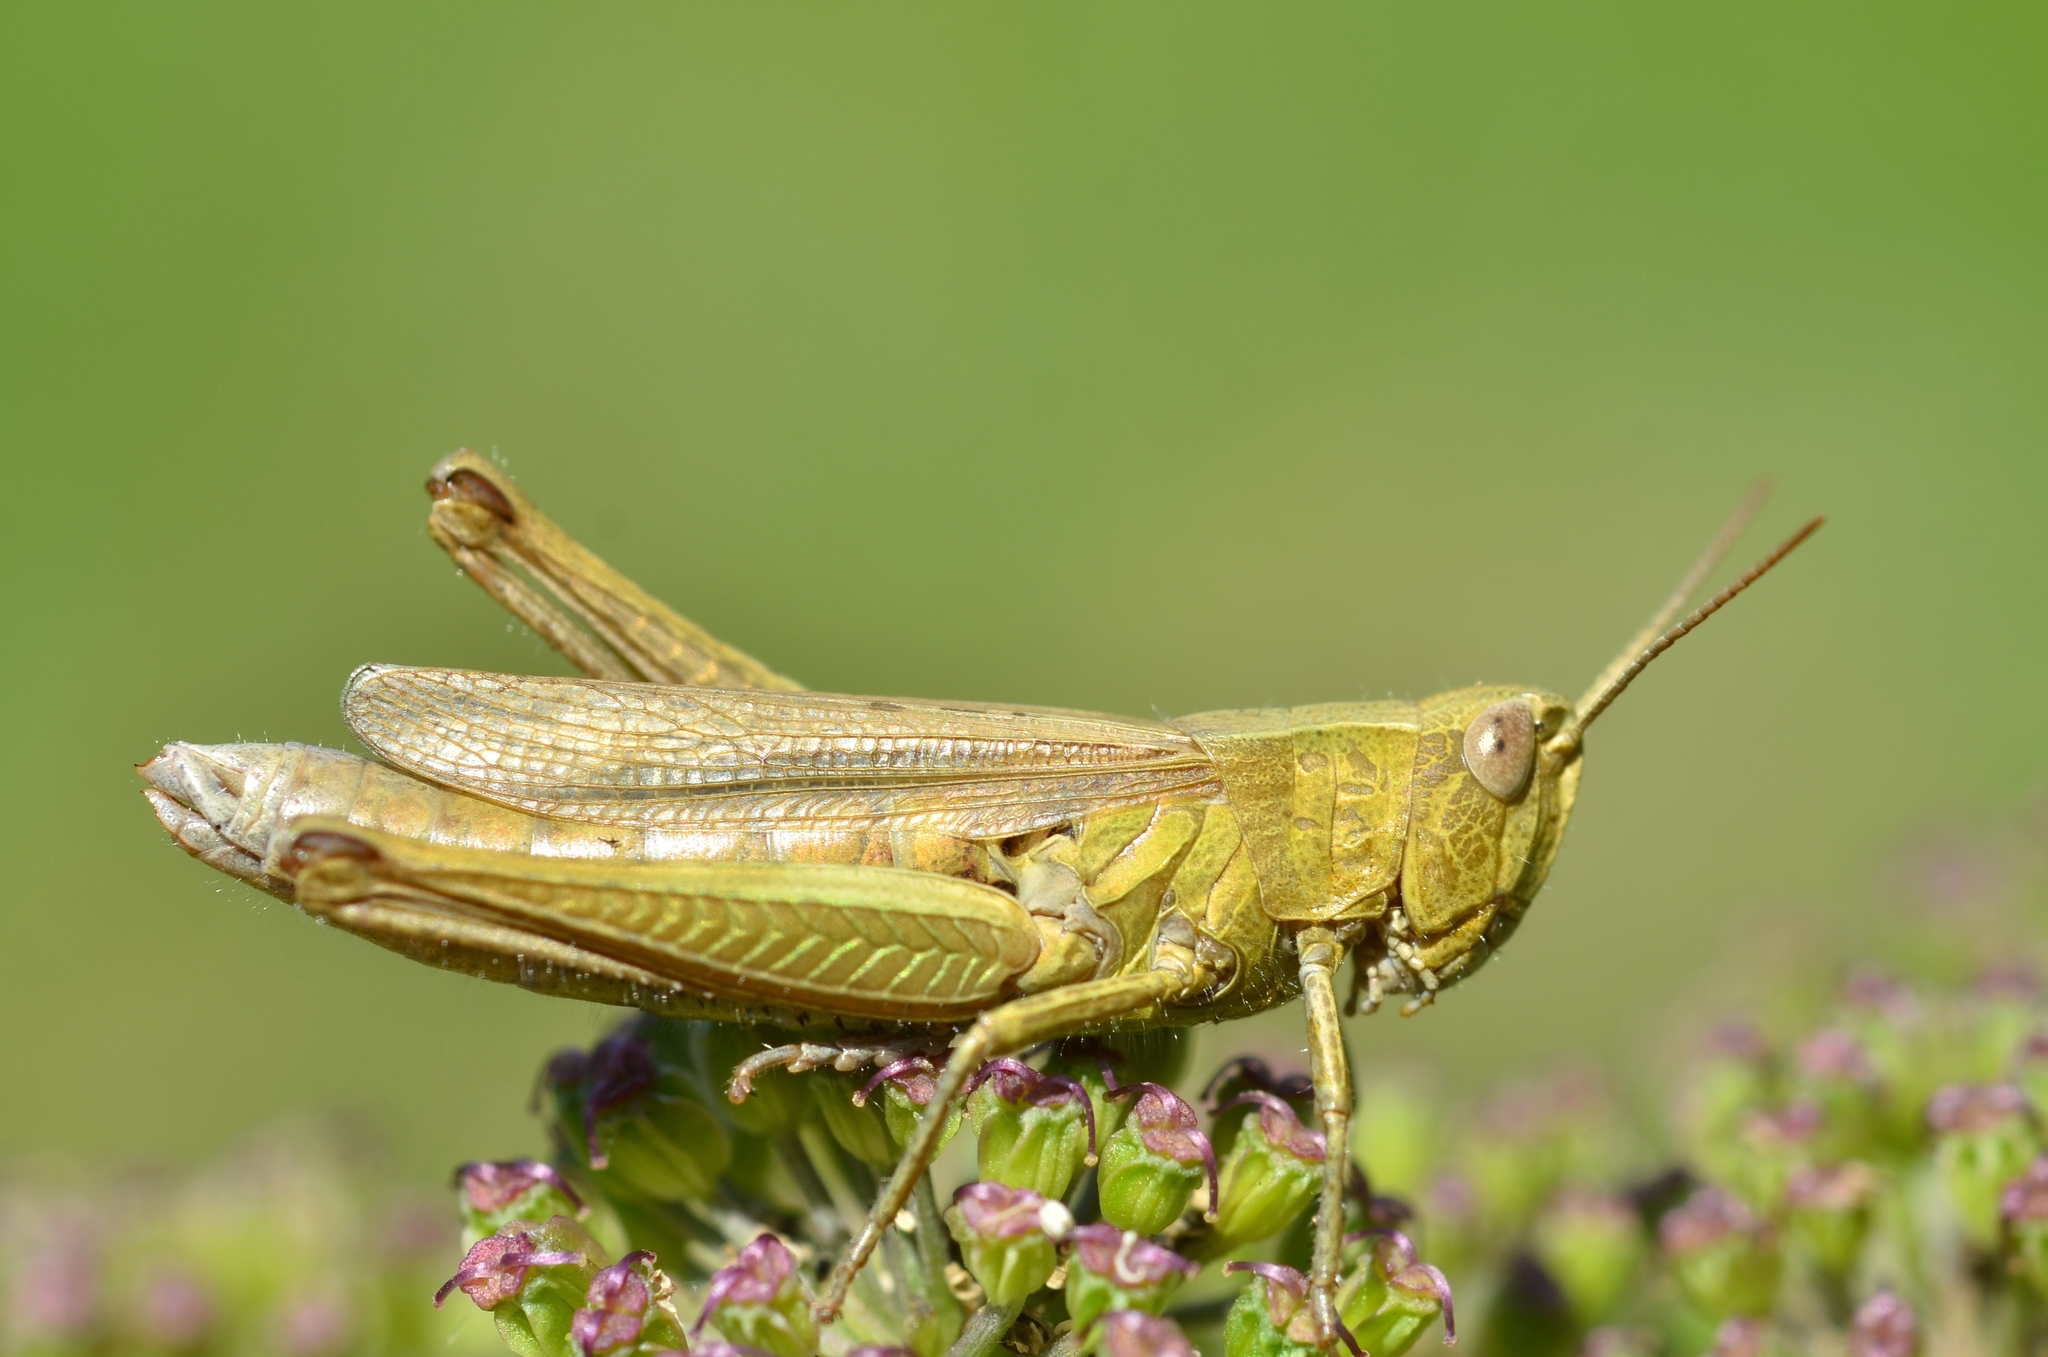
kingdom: Animalia
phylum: Arthropoda
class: Insecta
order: Orthoptera
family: Acrididae
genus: Chorthippus
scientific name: Chorthippus dorsatus
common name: Steppe grasshopper
